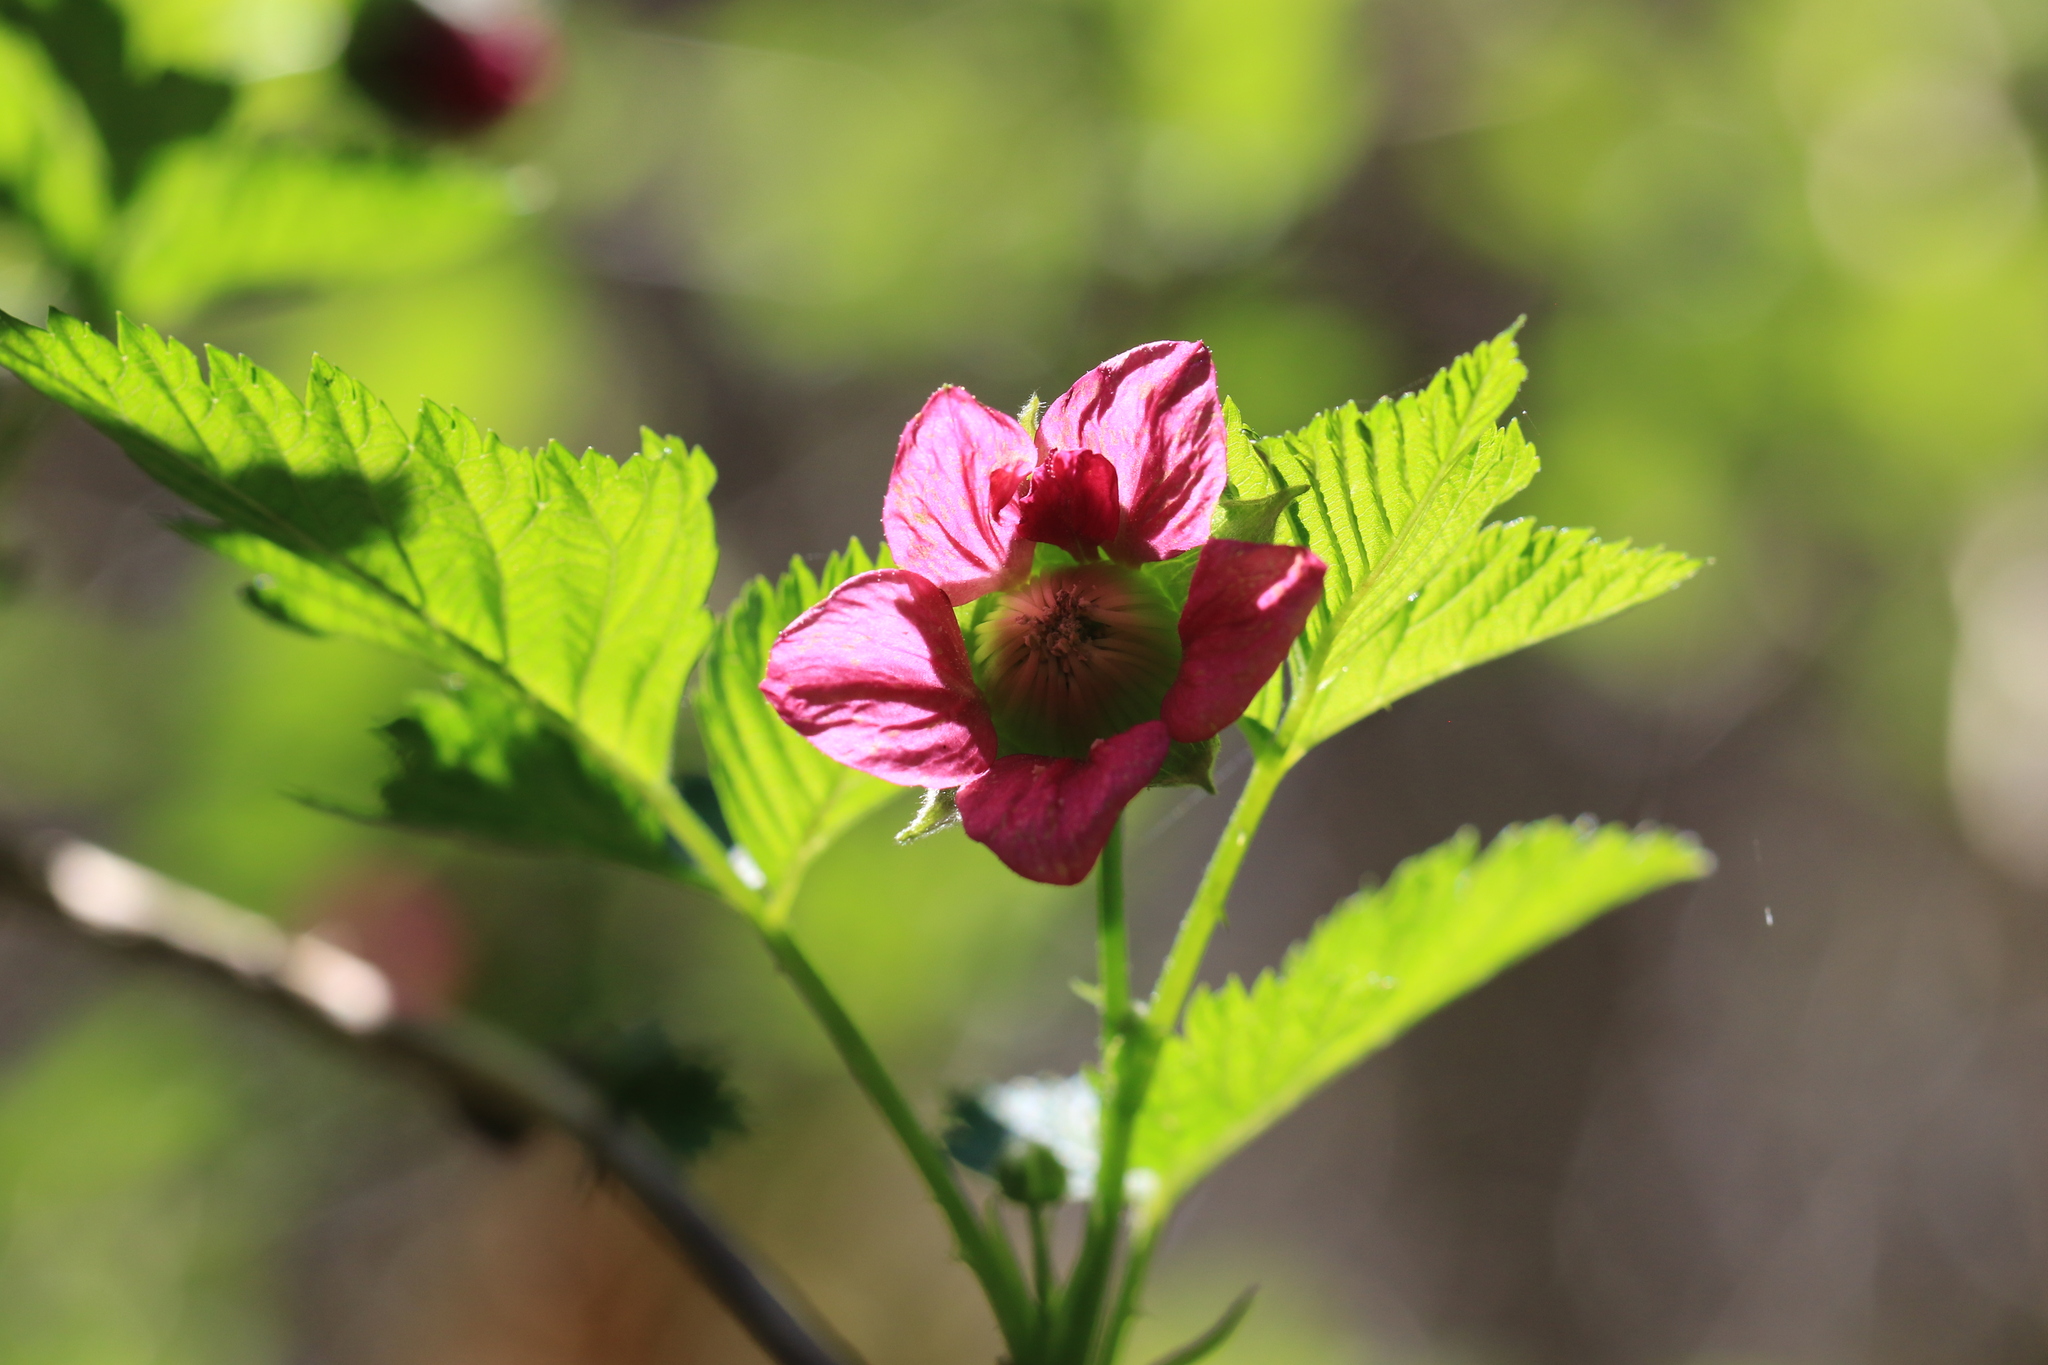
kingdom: Plantae
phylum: Tracheophyta
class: Magnoliopsida
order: Rosales
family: Rosaceae
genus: Rubus
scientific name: Rubus spectabilis
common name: Salmonberry
